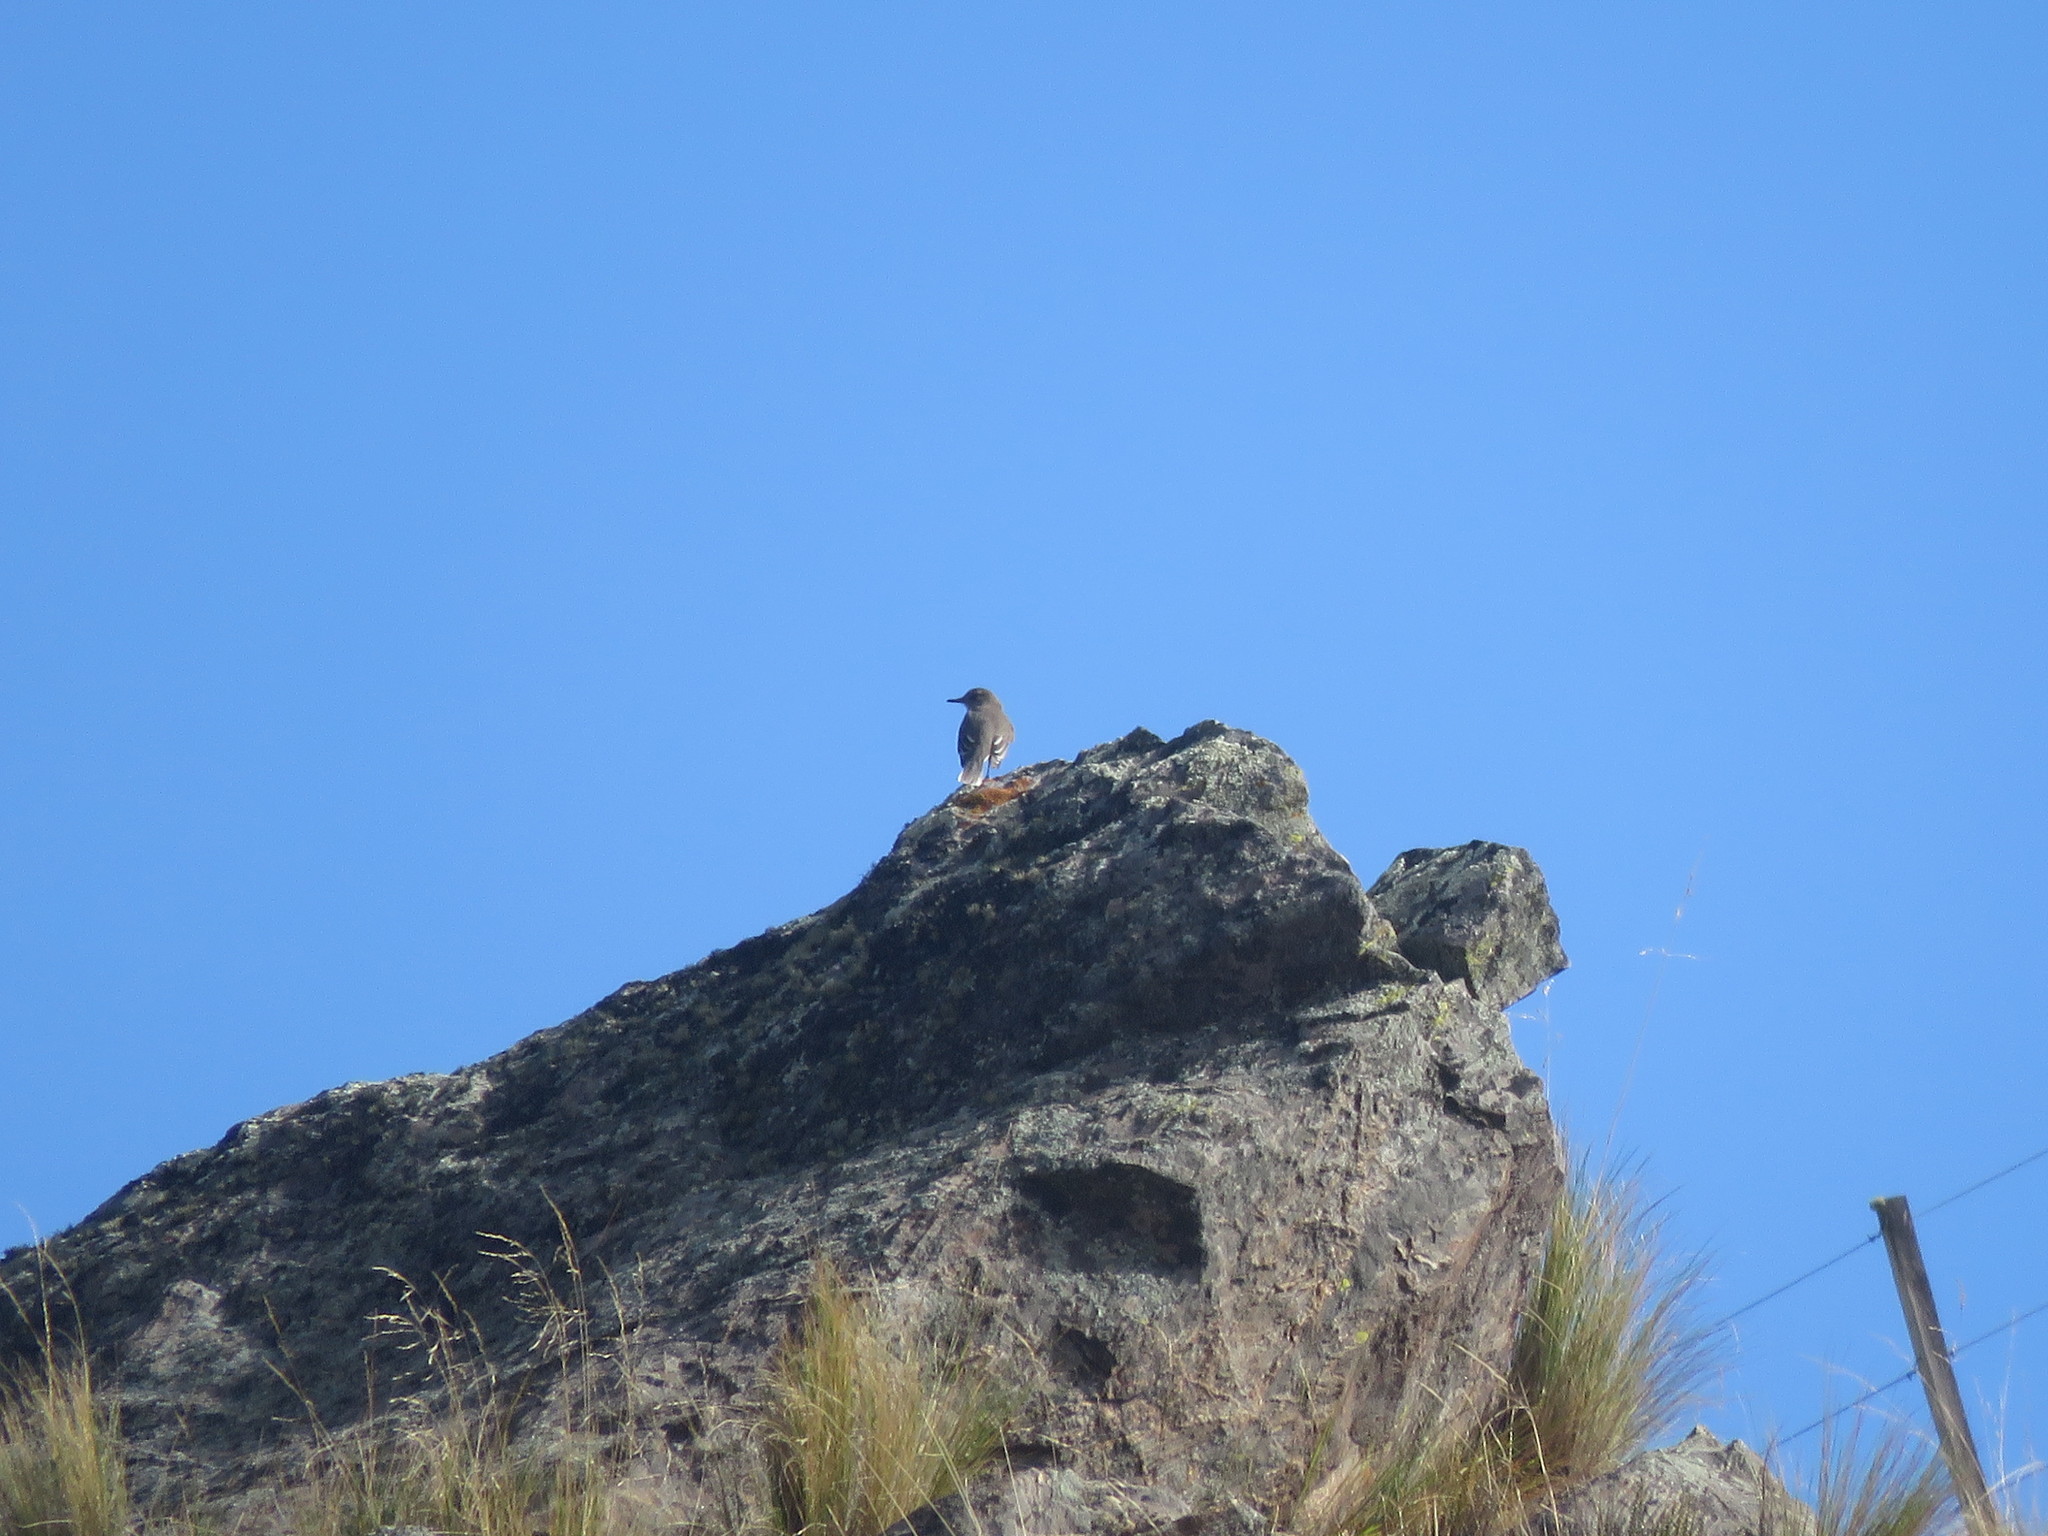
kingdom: Animalia
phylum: Chordata
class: Aves
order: Passeriformes
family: Tyrannidae
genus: Agriornis
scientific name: Agriornis montanus
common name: Black-billed shrike-tyrant
